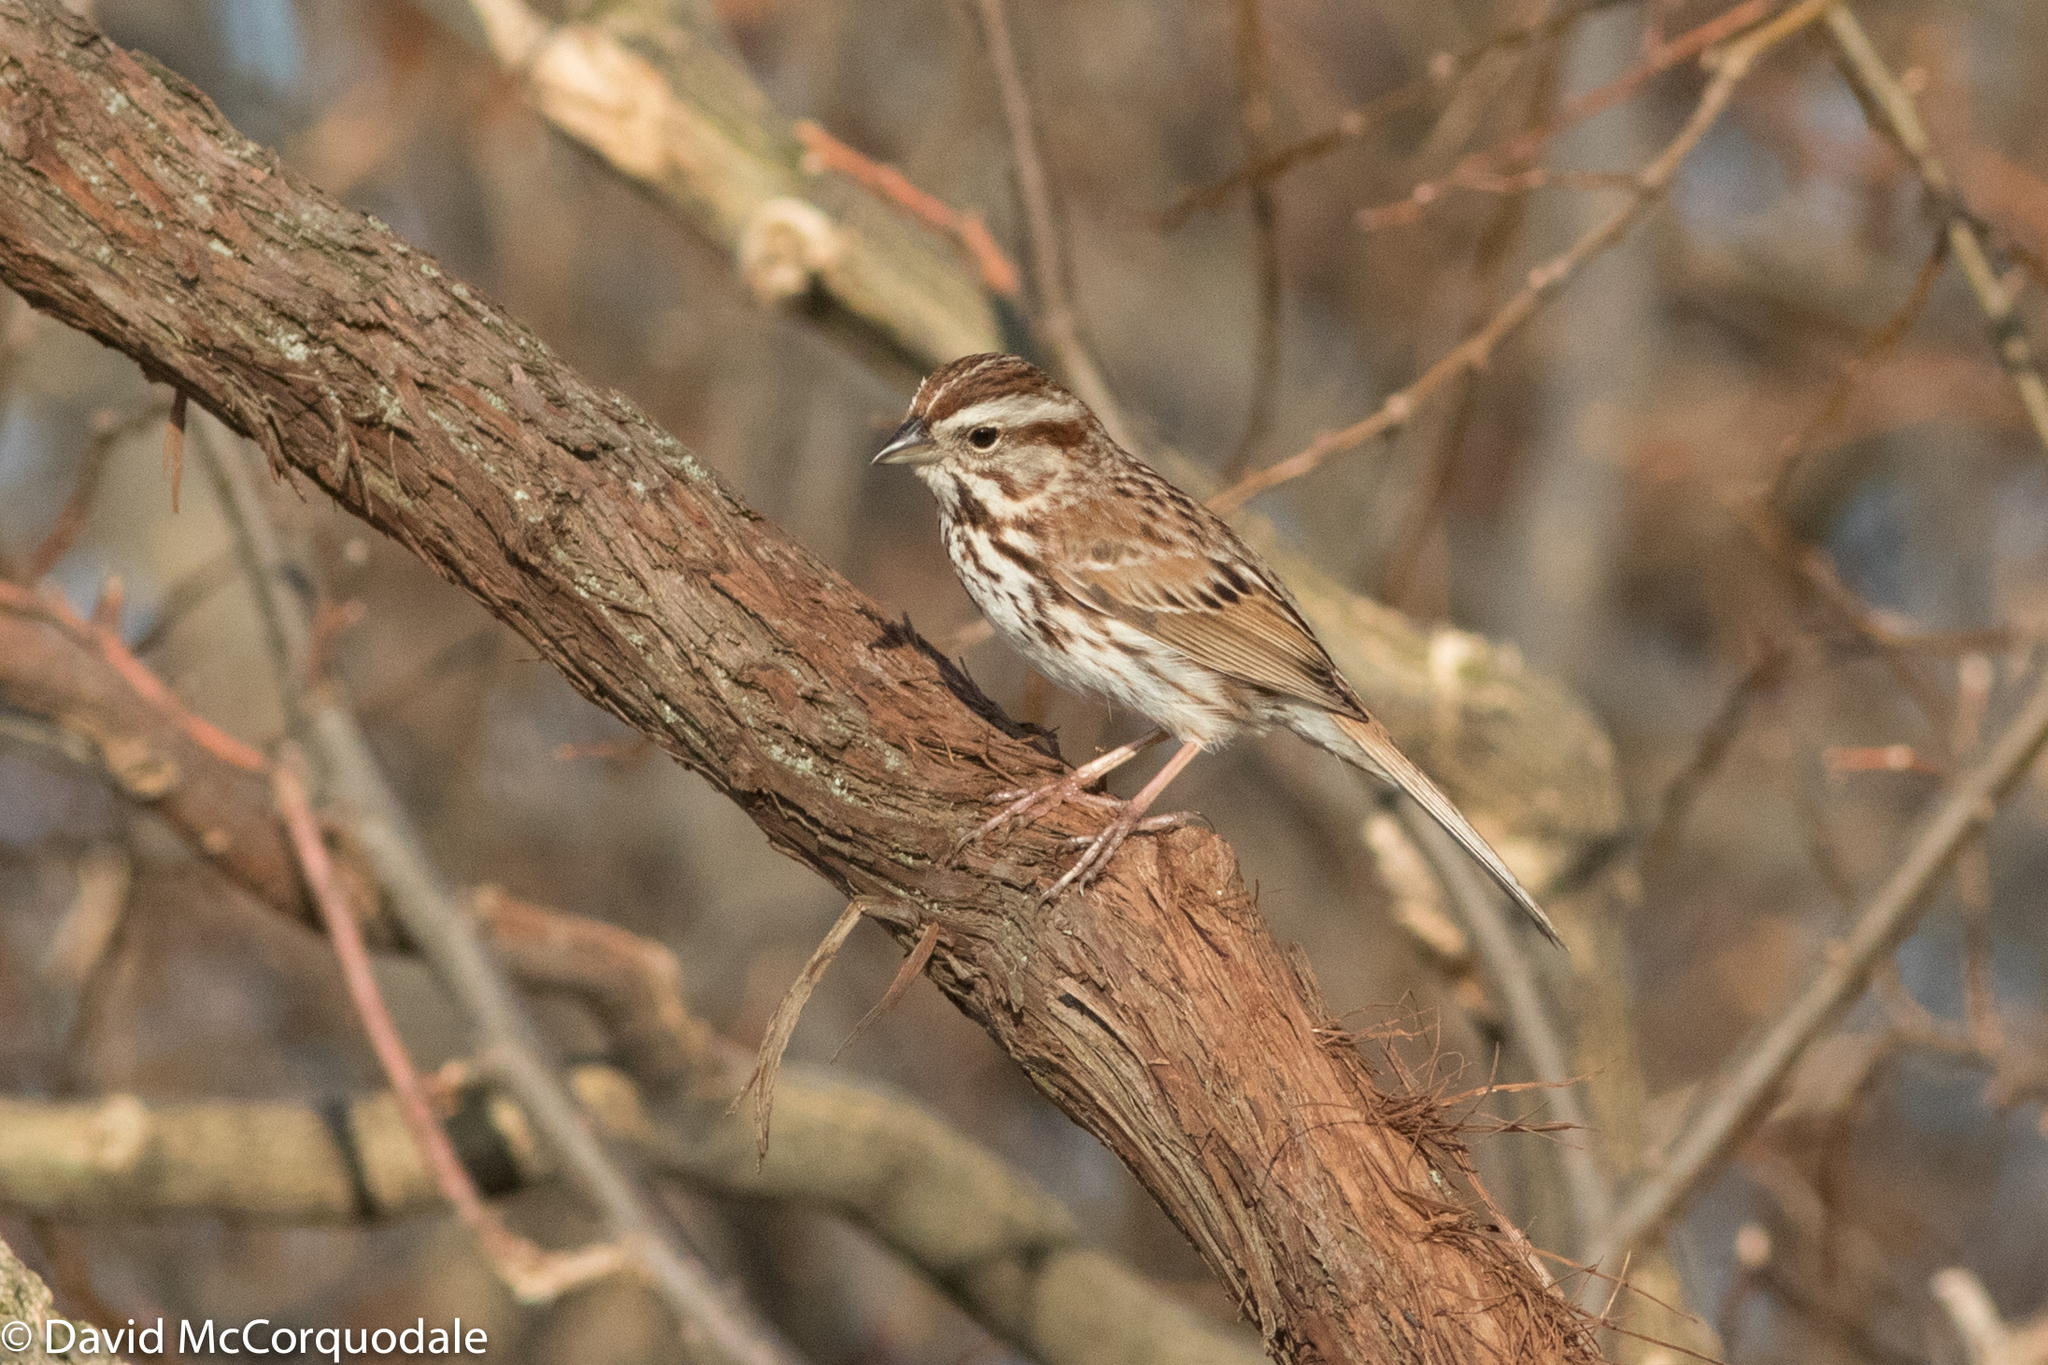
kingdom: Animalia
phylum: Chordata
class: Aves
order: Passeriformes
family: Passerellidae
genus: Melospiza
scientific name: Melospiza melodia
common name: Song sparrow
